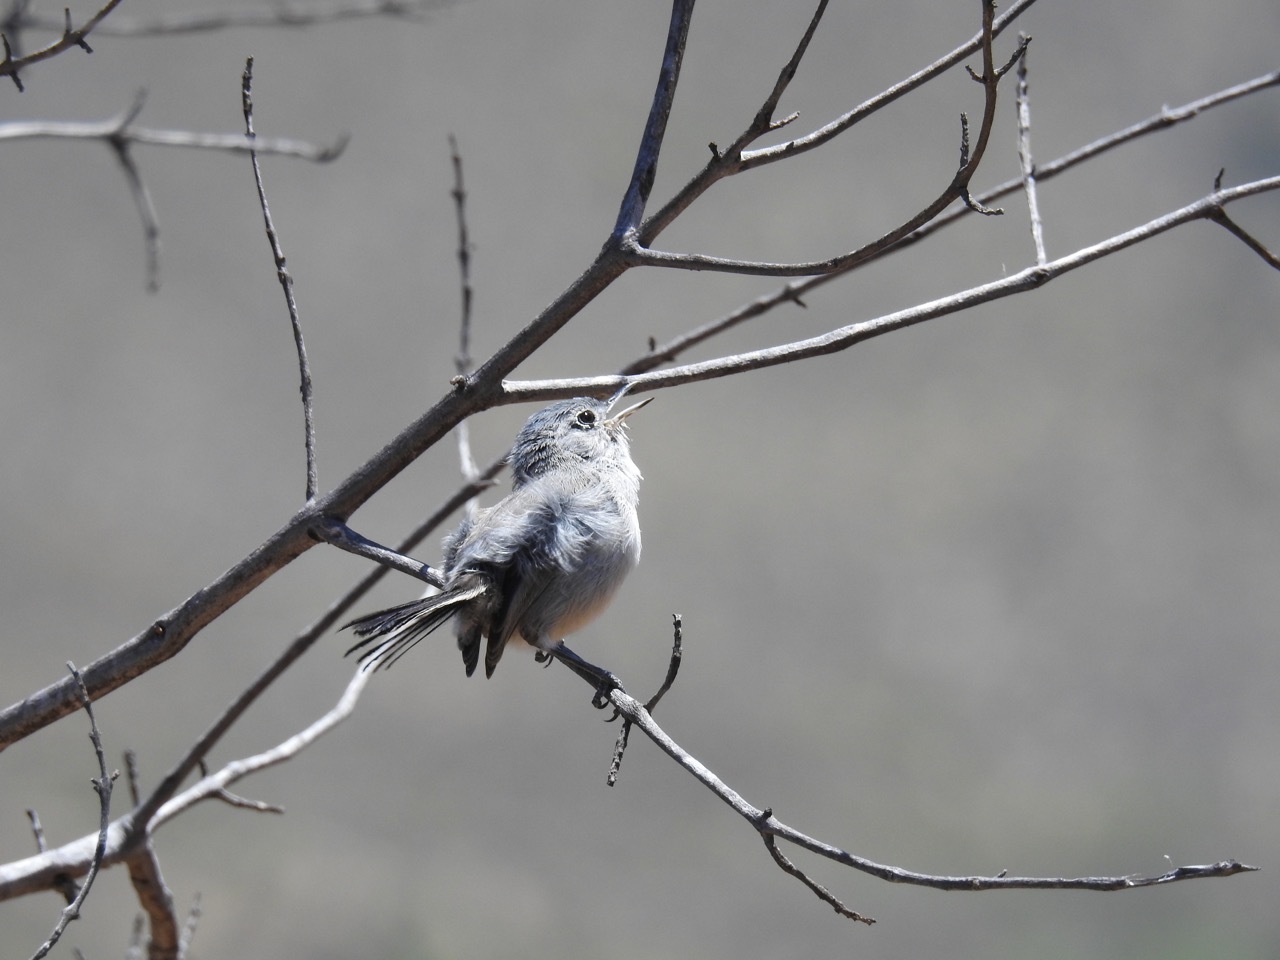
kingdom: Animalia
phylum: Chordata
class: Aves
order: Passeriformes
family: Polioptilidae
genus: Polioptila
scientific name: Polioptila californica
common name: California gnatcatcher
